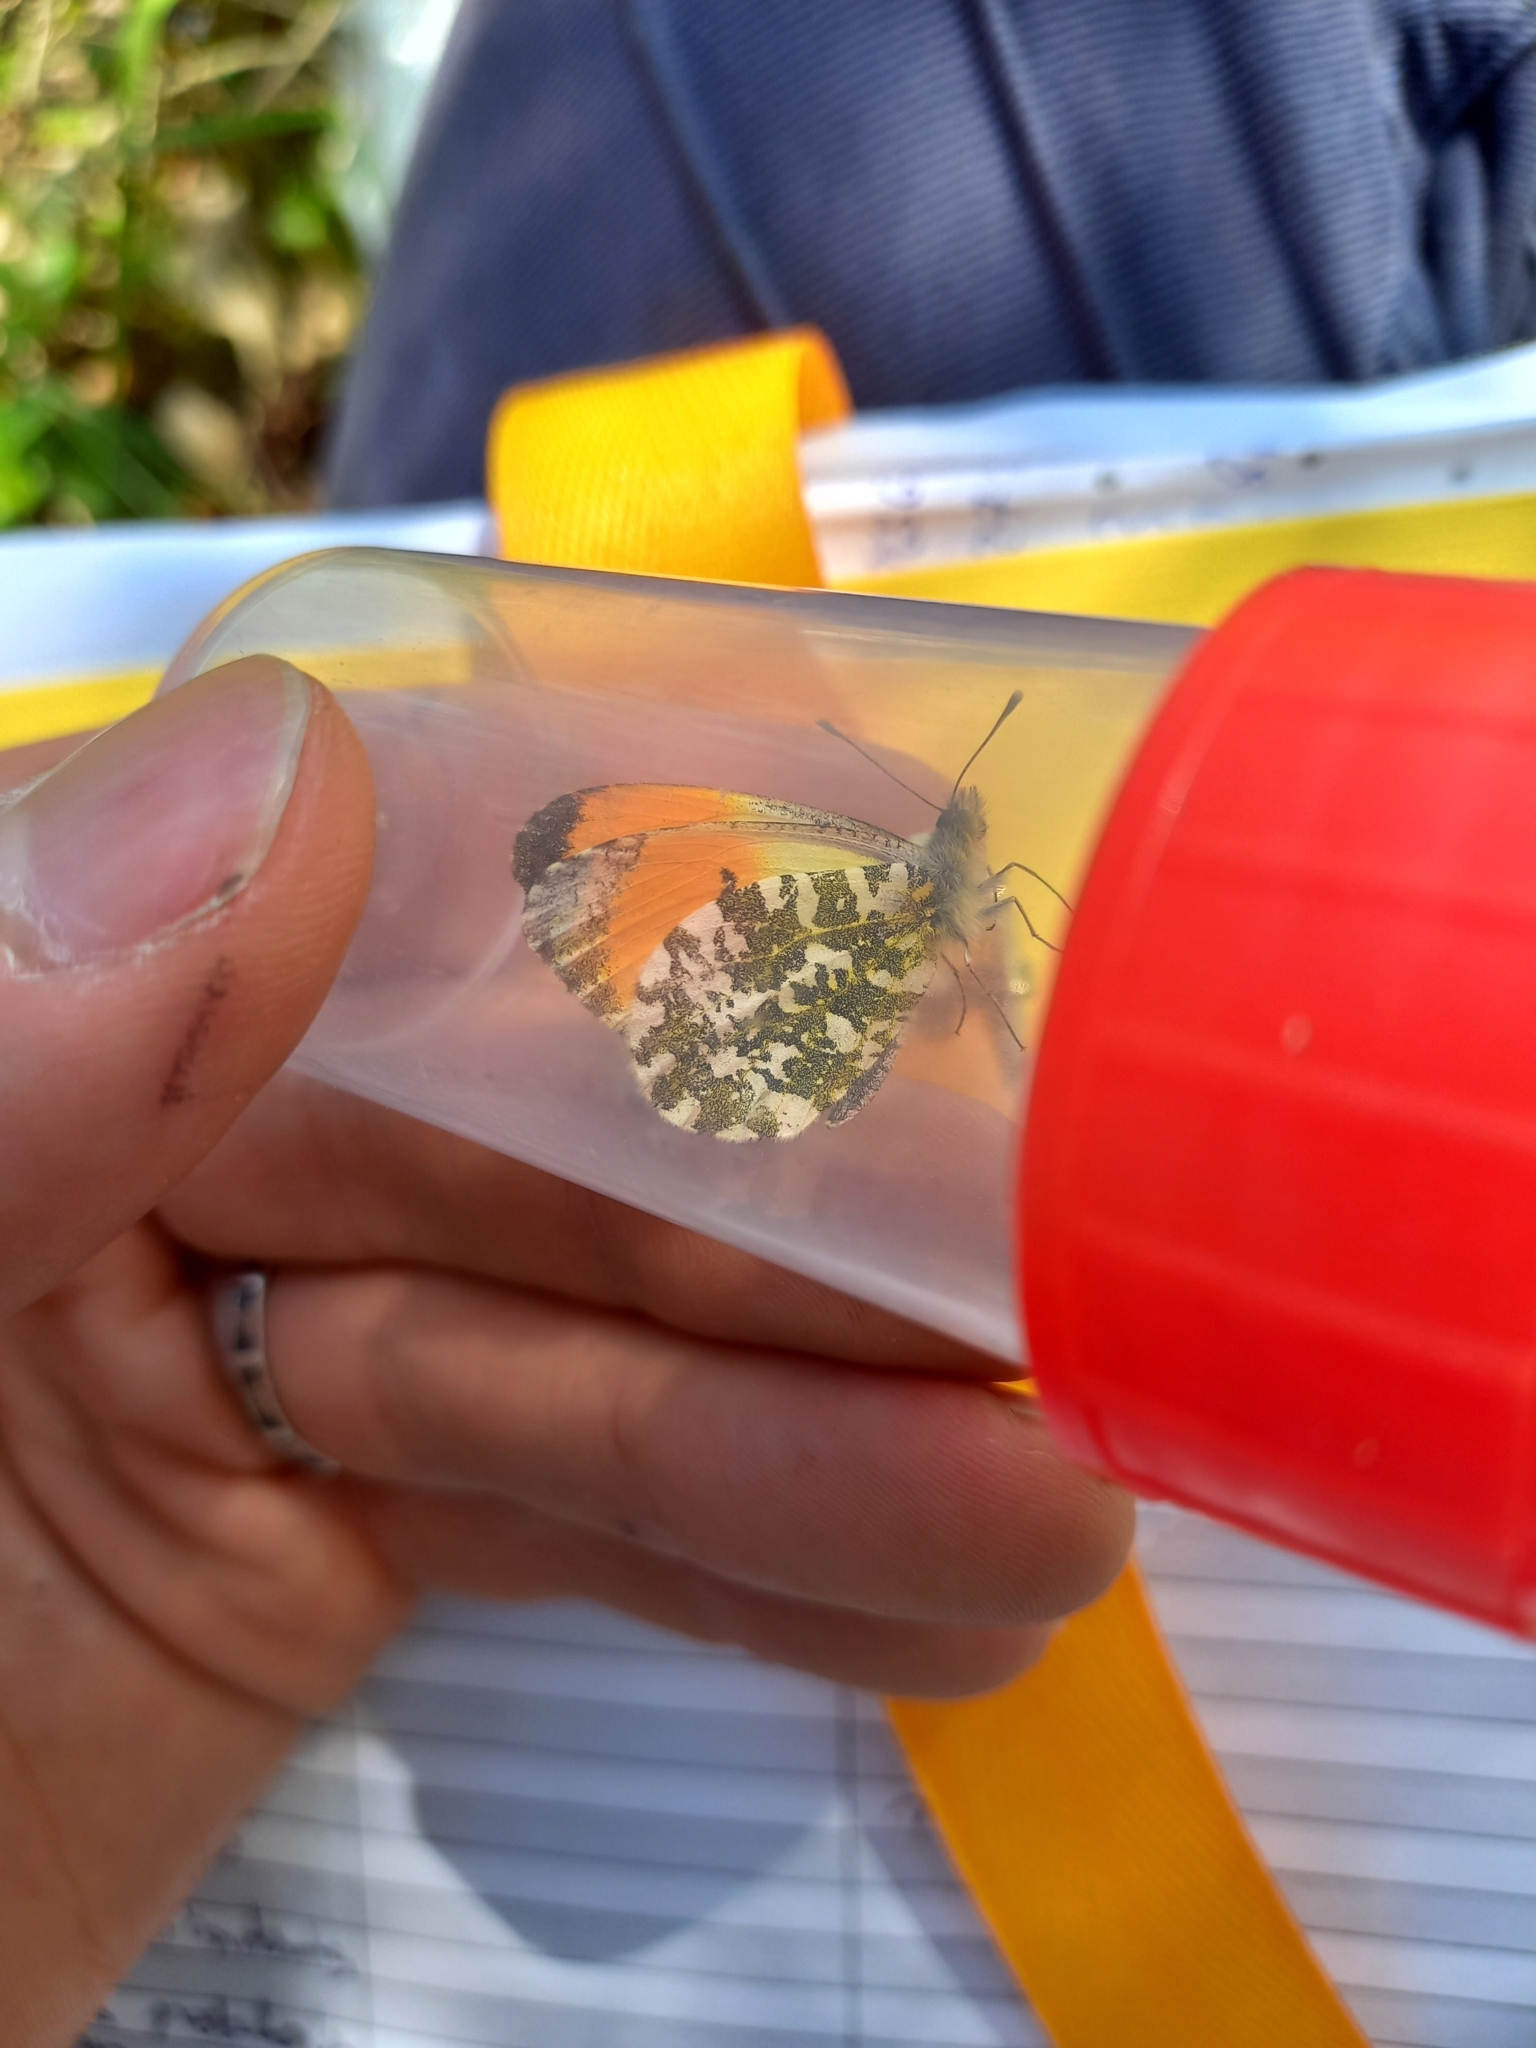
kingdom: Animalia
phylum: Arthropoda
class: Insecta
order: Lepidoptera
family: Pieridae
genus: Anthocharis
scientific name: Anthocharis cardamines
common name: Orange-tip
